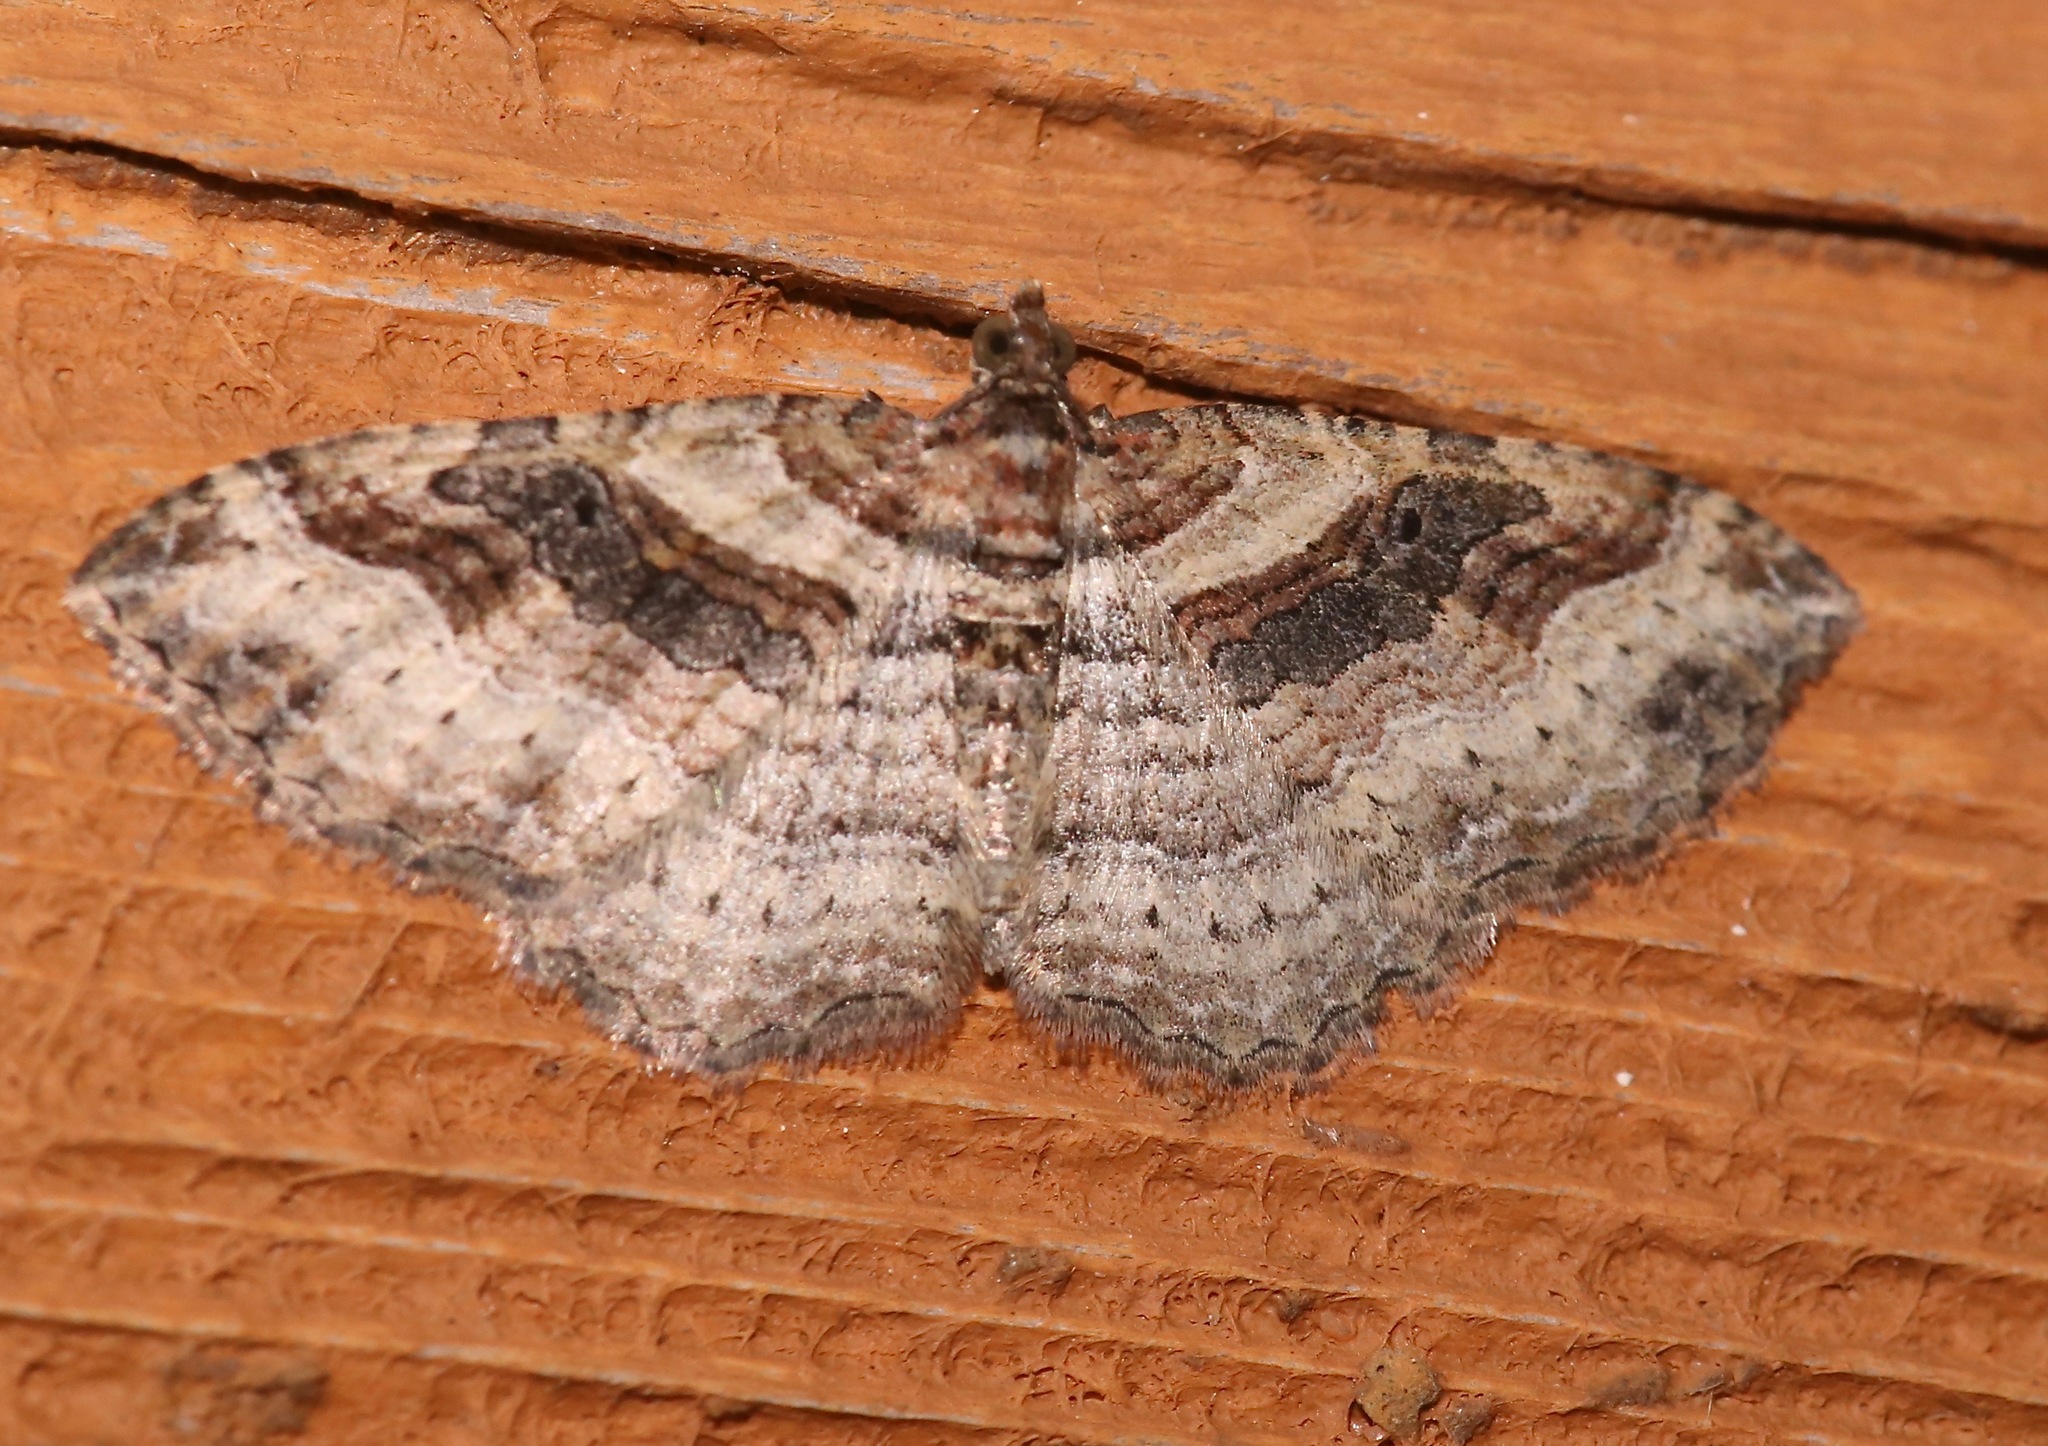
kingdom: Animalia
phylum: Arthropoda
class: Insecta
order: Lepidoptera
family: Geometridae
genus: Costaconvexa
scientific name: Costaconvexa centrostrigaria
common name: Bent-line carpet
